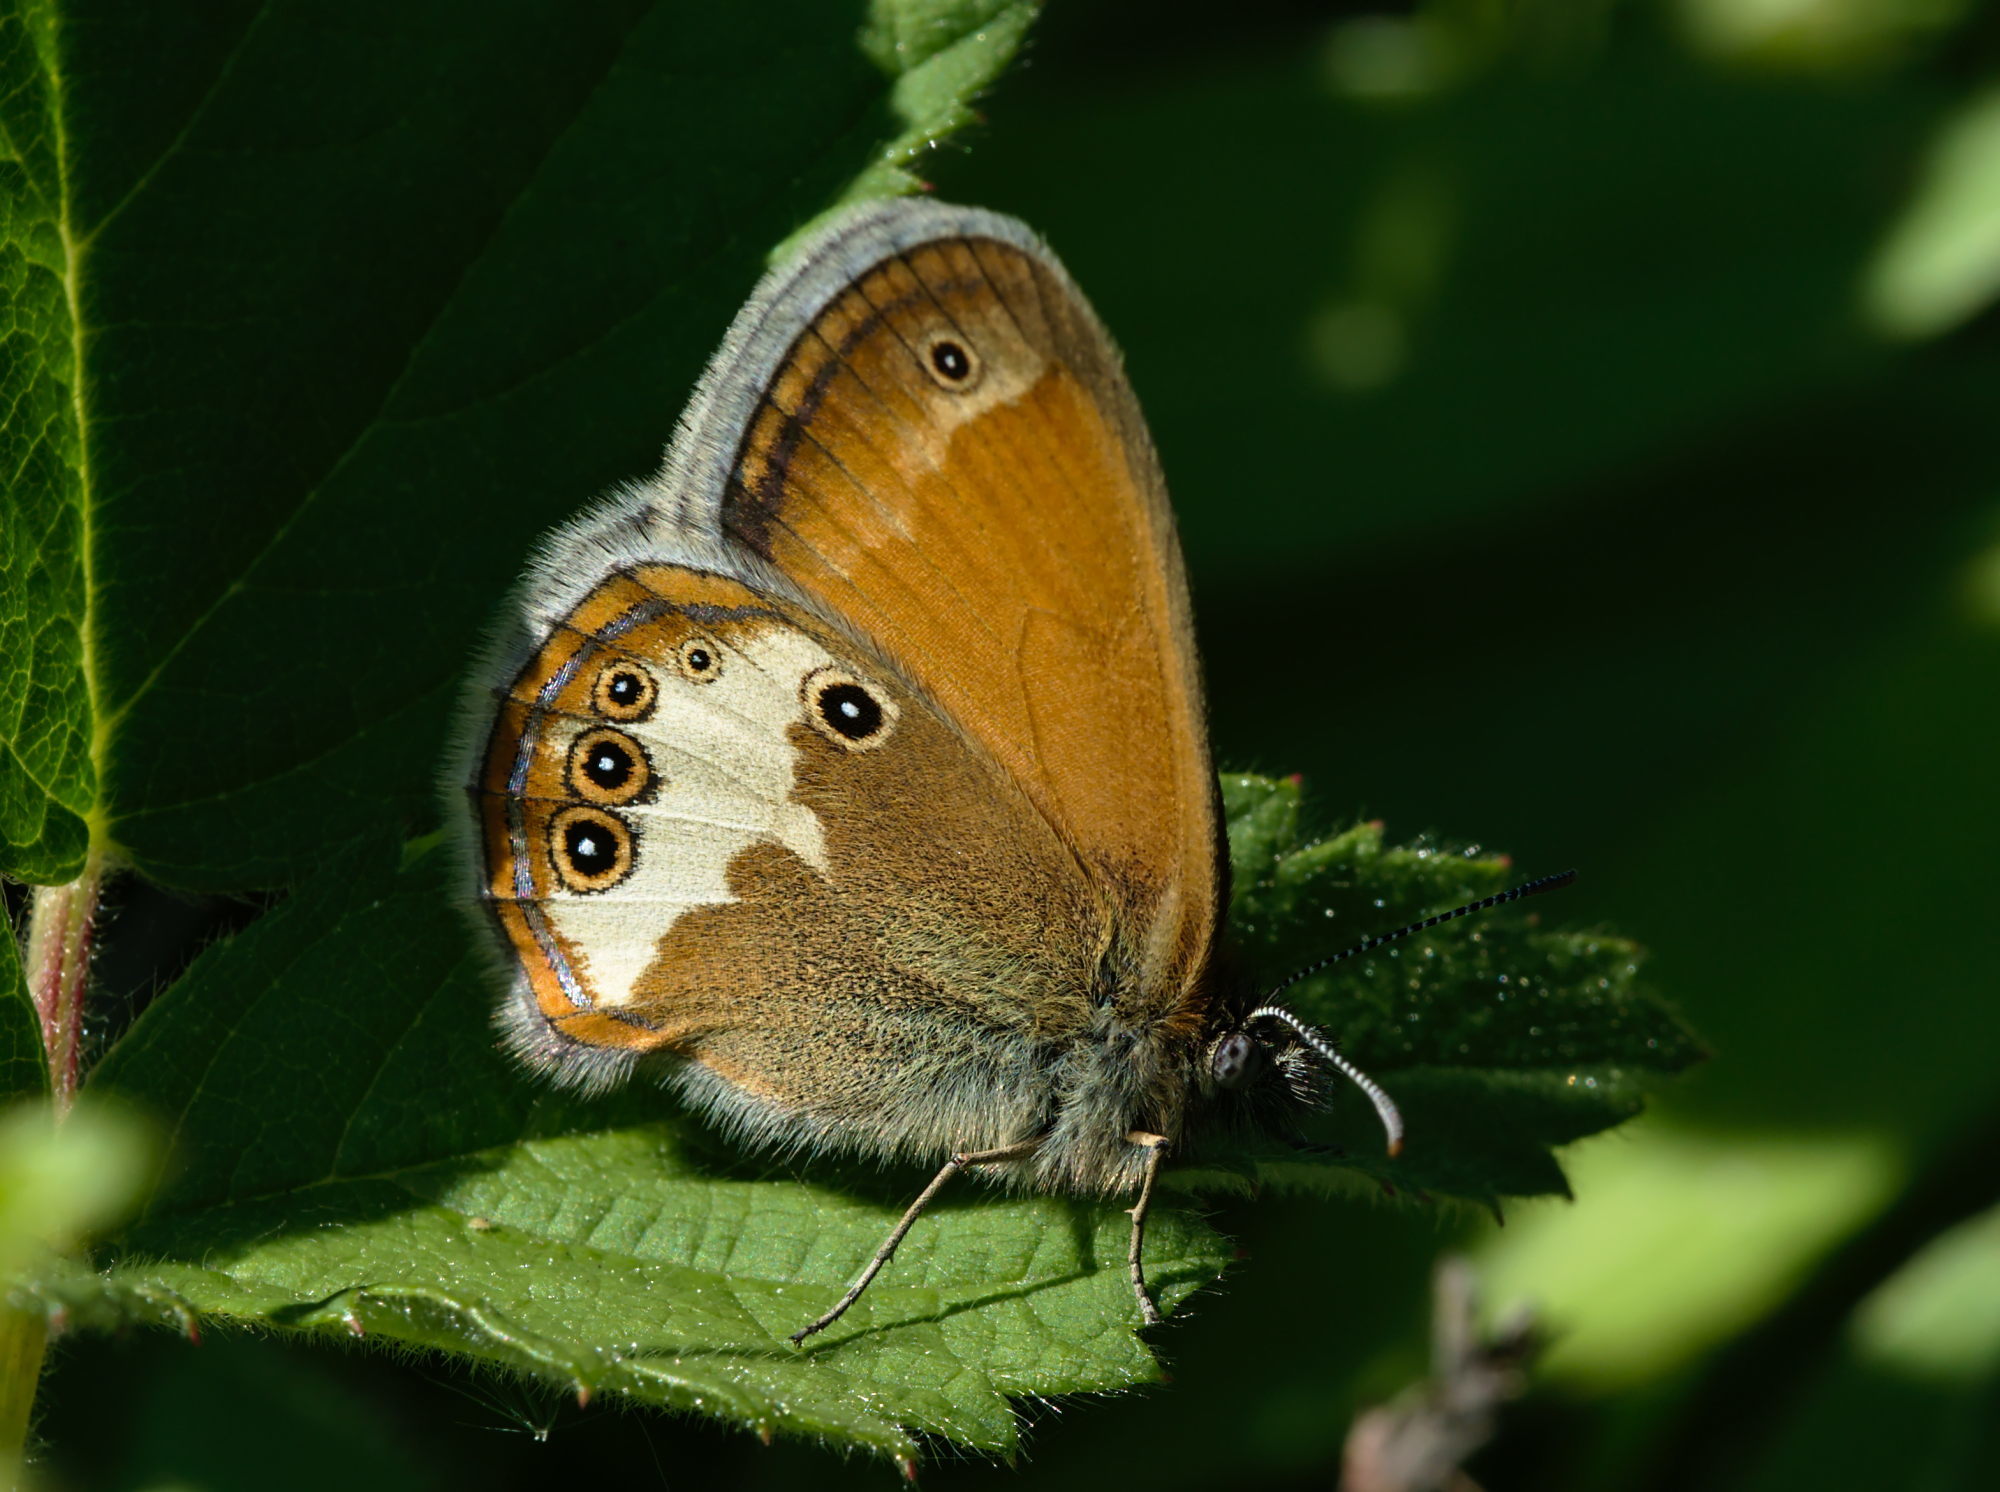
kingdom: Animalia
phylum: Arthropoda
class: Insecta
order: Lepidoptera
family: Nymphalidae
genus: Coenonympha
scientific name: Coenonympha arcania
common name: Pearly heath
